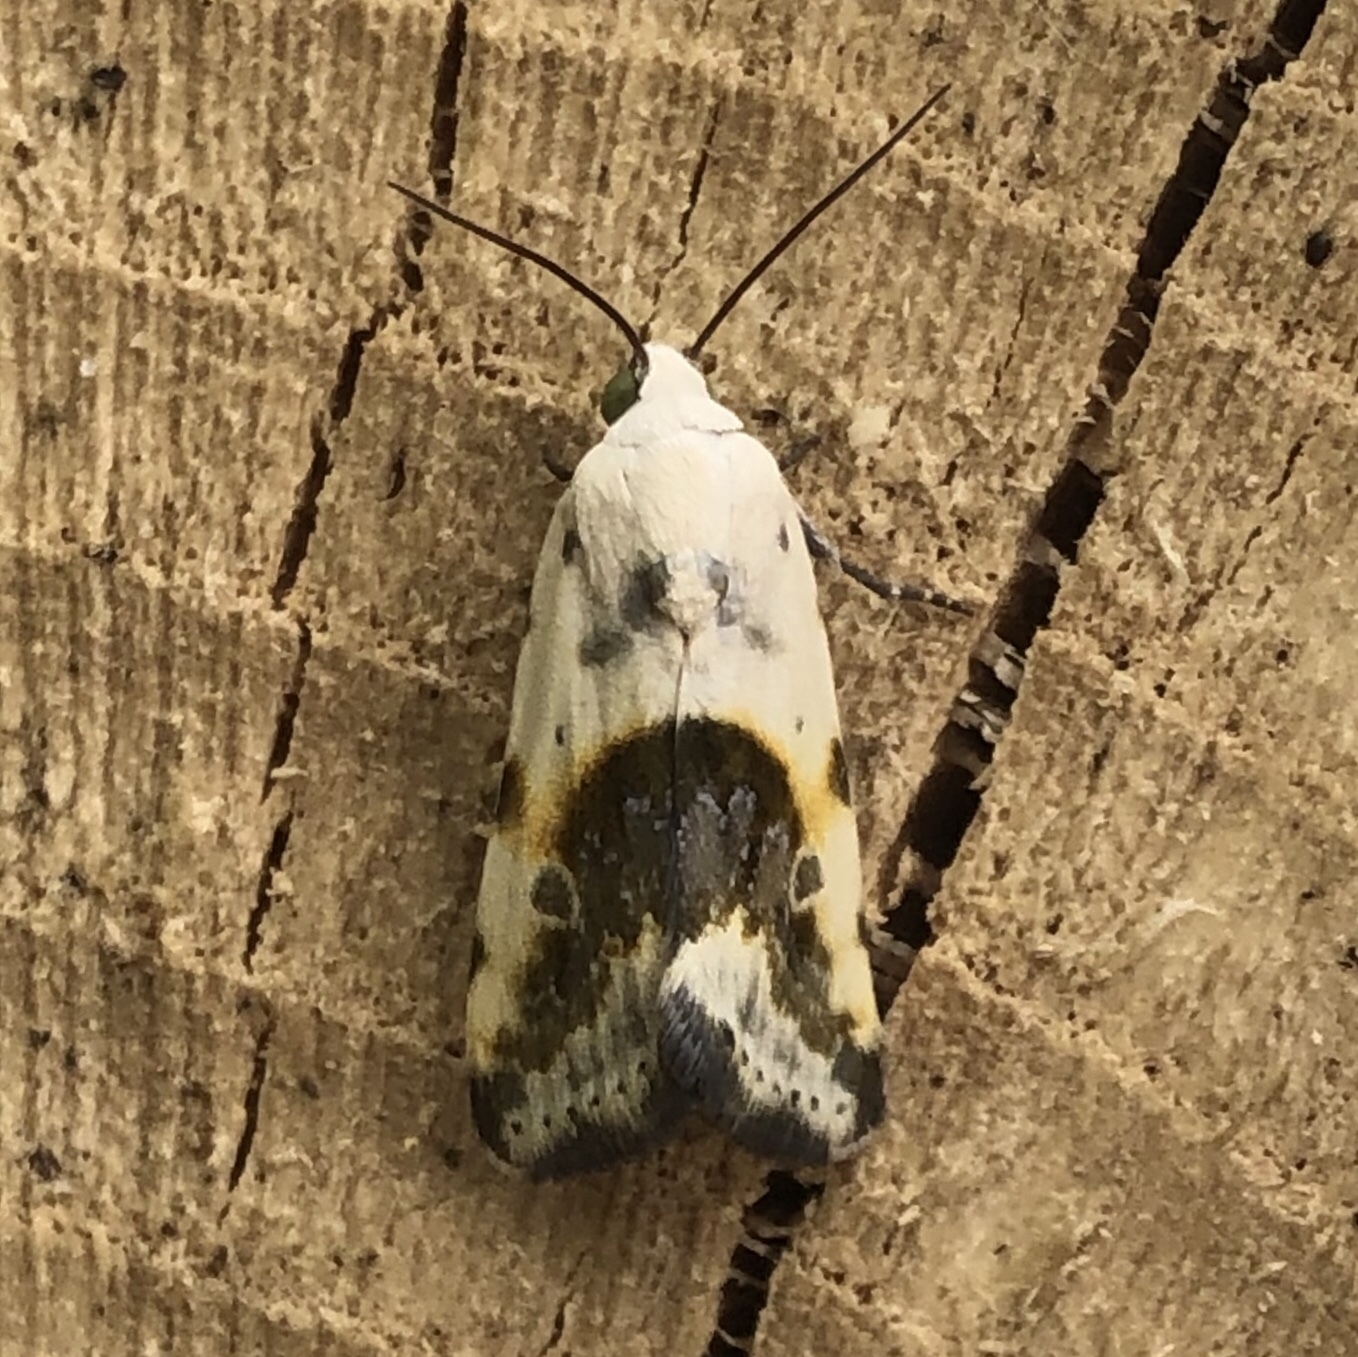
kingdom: Animalia
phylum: Arthropoda
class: Insecta
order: Lepidoptera
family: Noctuidae
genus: Acontia
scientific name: Acontia candefacta
